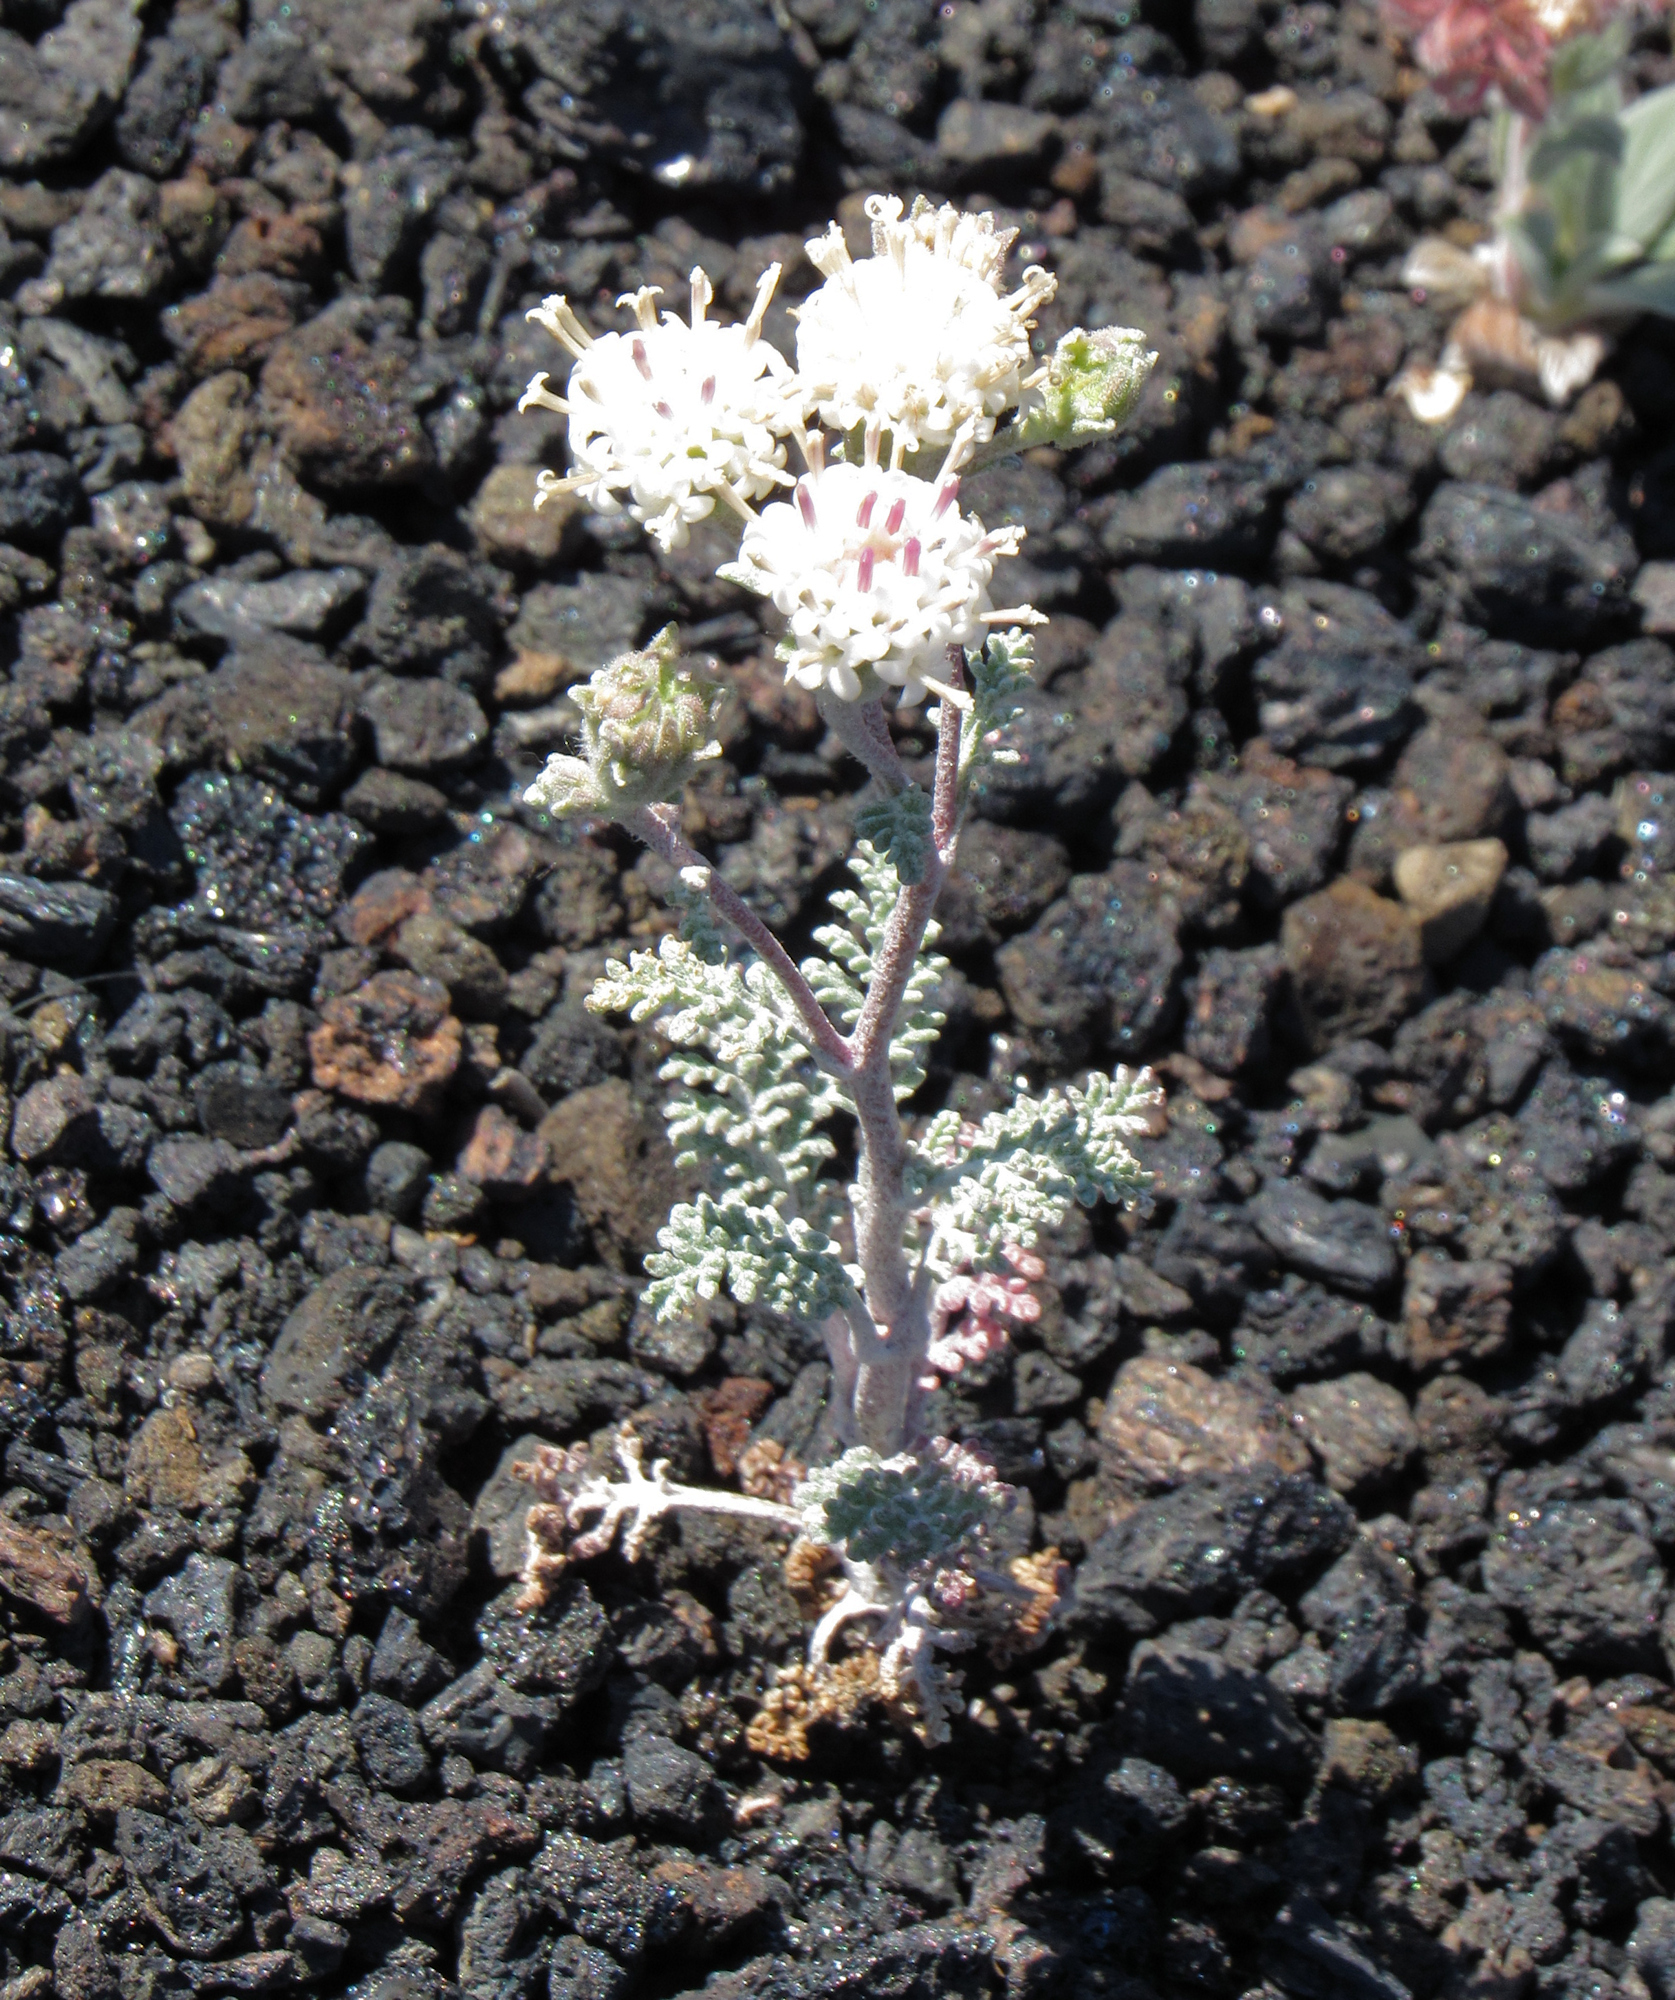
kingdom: Plantae
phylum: Tracheophyta
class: Magnoliopsida
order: Asterales
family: Asteraceae
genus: Chaenactis
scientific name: Chaenactis douglasii
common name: Hoary pincushion
